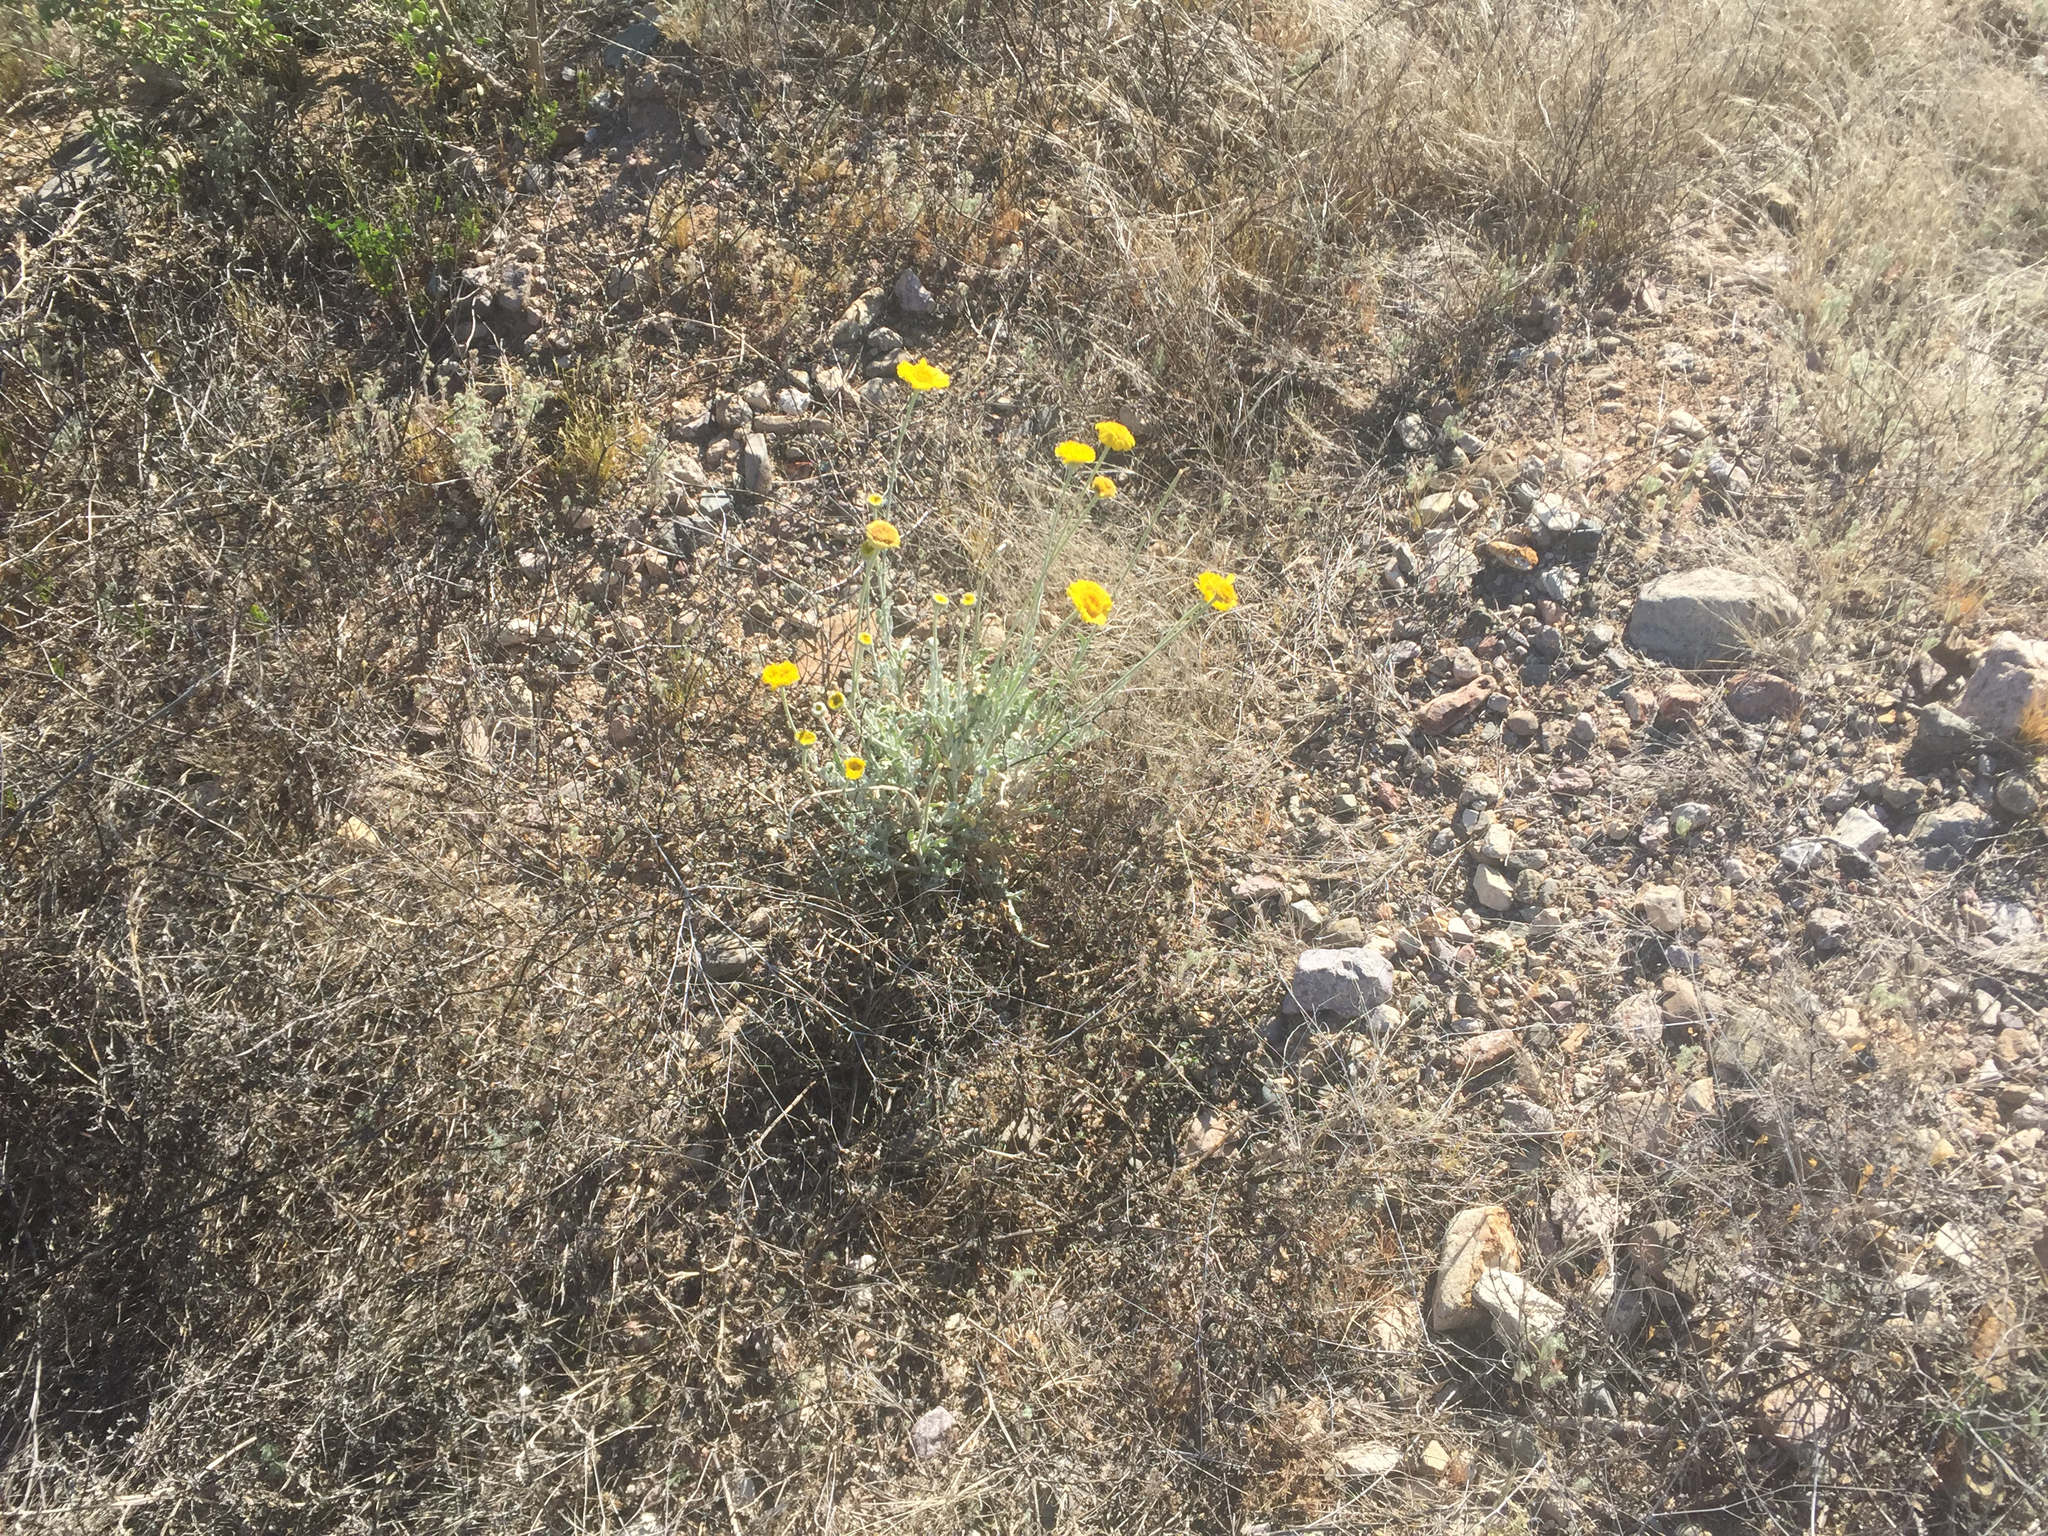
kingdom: Plantae
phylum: Tracheophyta
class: Magnoliopsida
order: Asterales
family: Asteraceae
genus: Baileya
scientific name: Baileya multiradiata
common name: Desert-marigold
